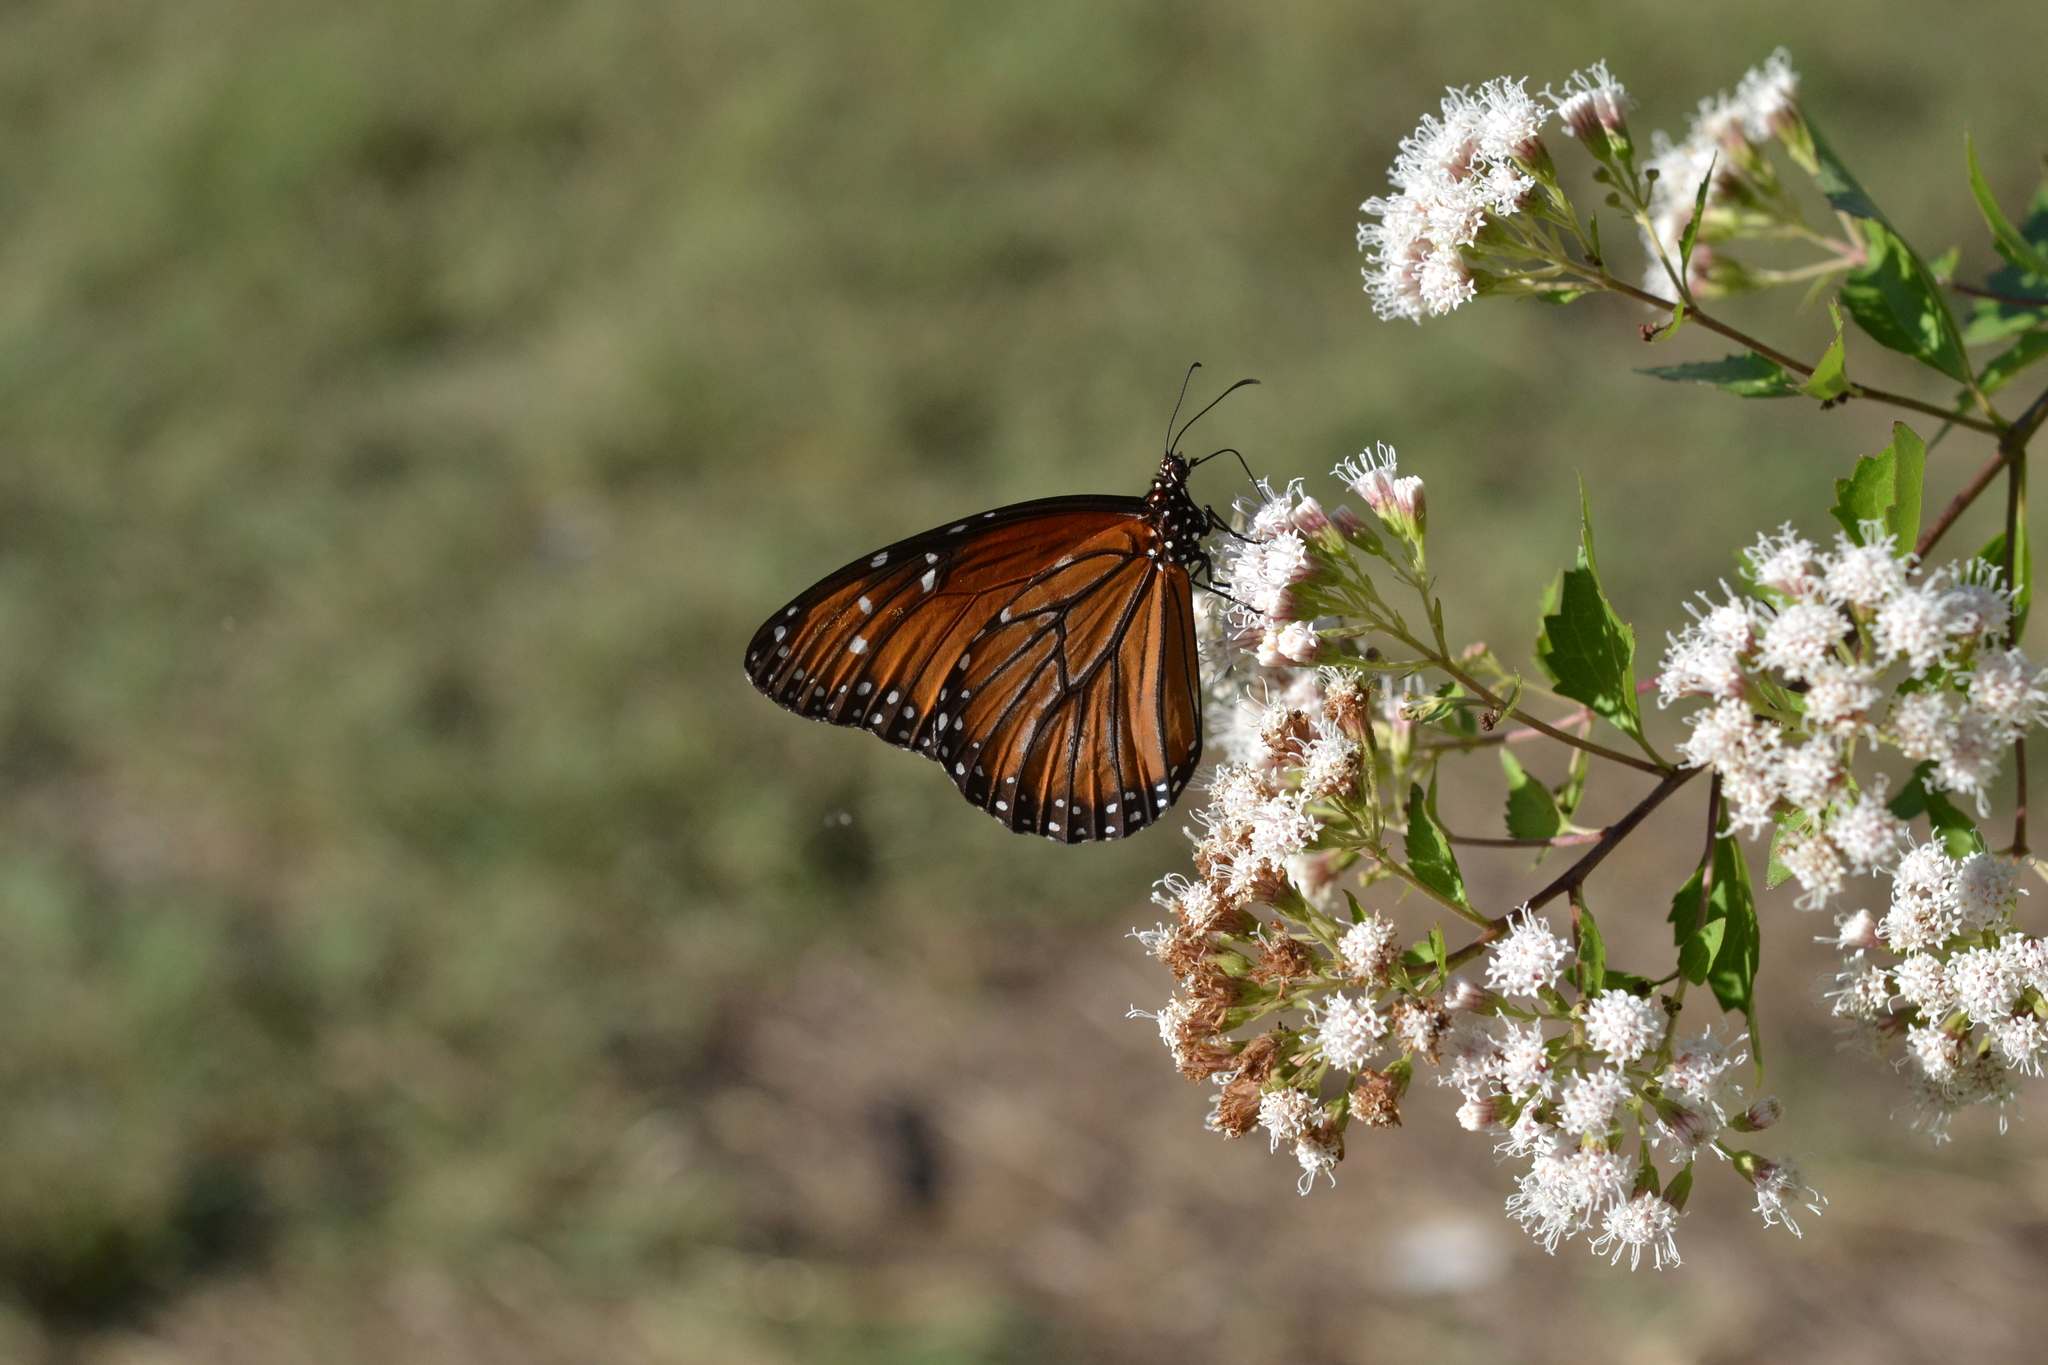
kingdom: Animalia
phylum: Arthropoda
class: Insecta
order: Lepidoptera
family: Nymphalidae
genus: Danaus
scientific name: Danaus eresimus
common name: Soldier
